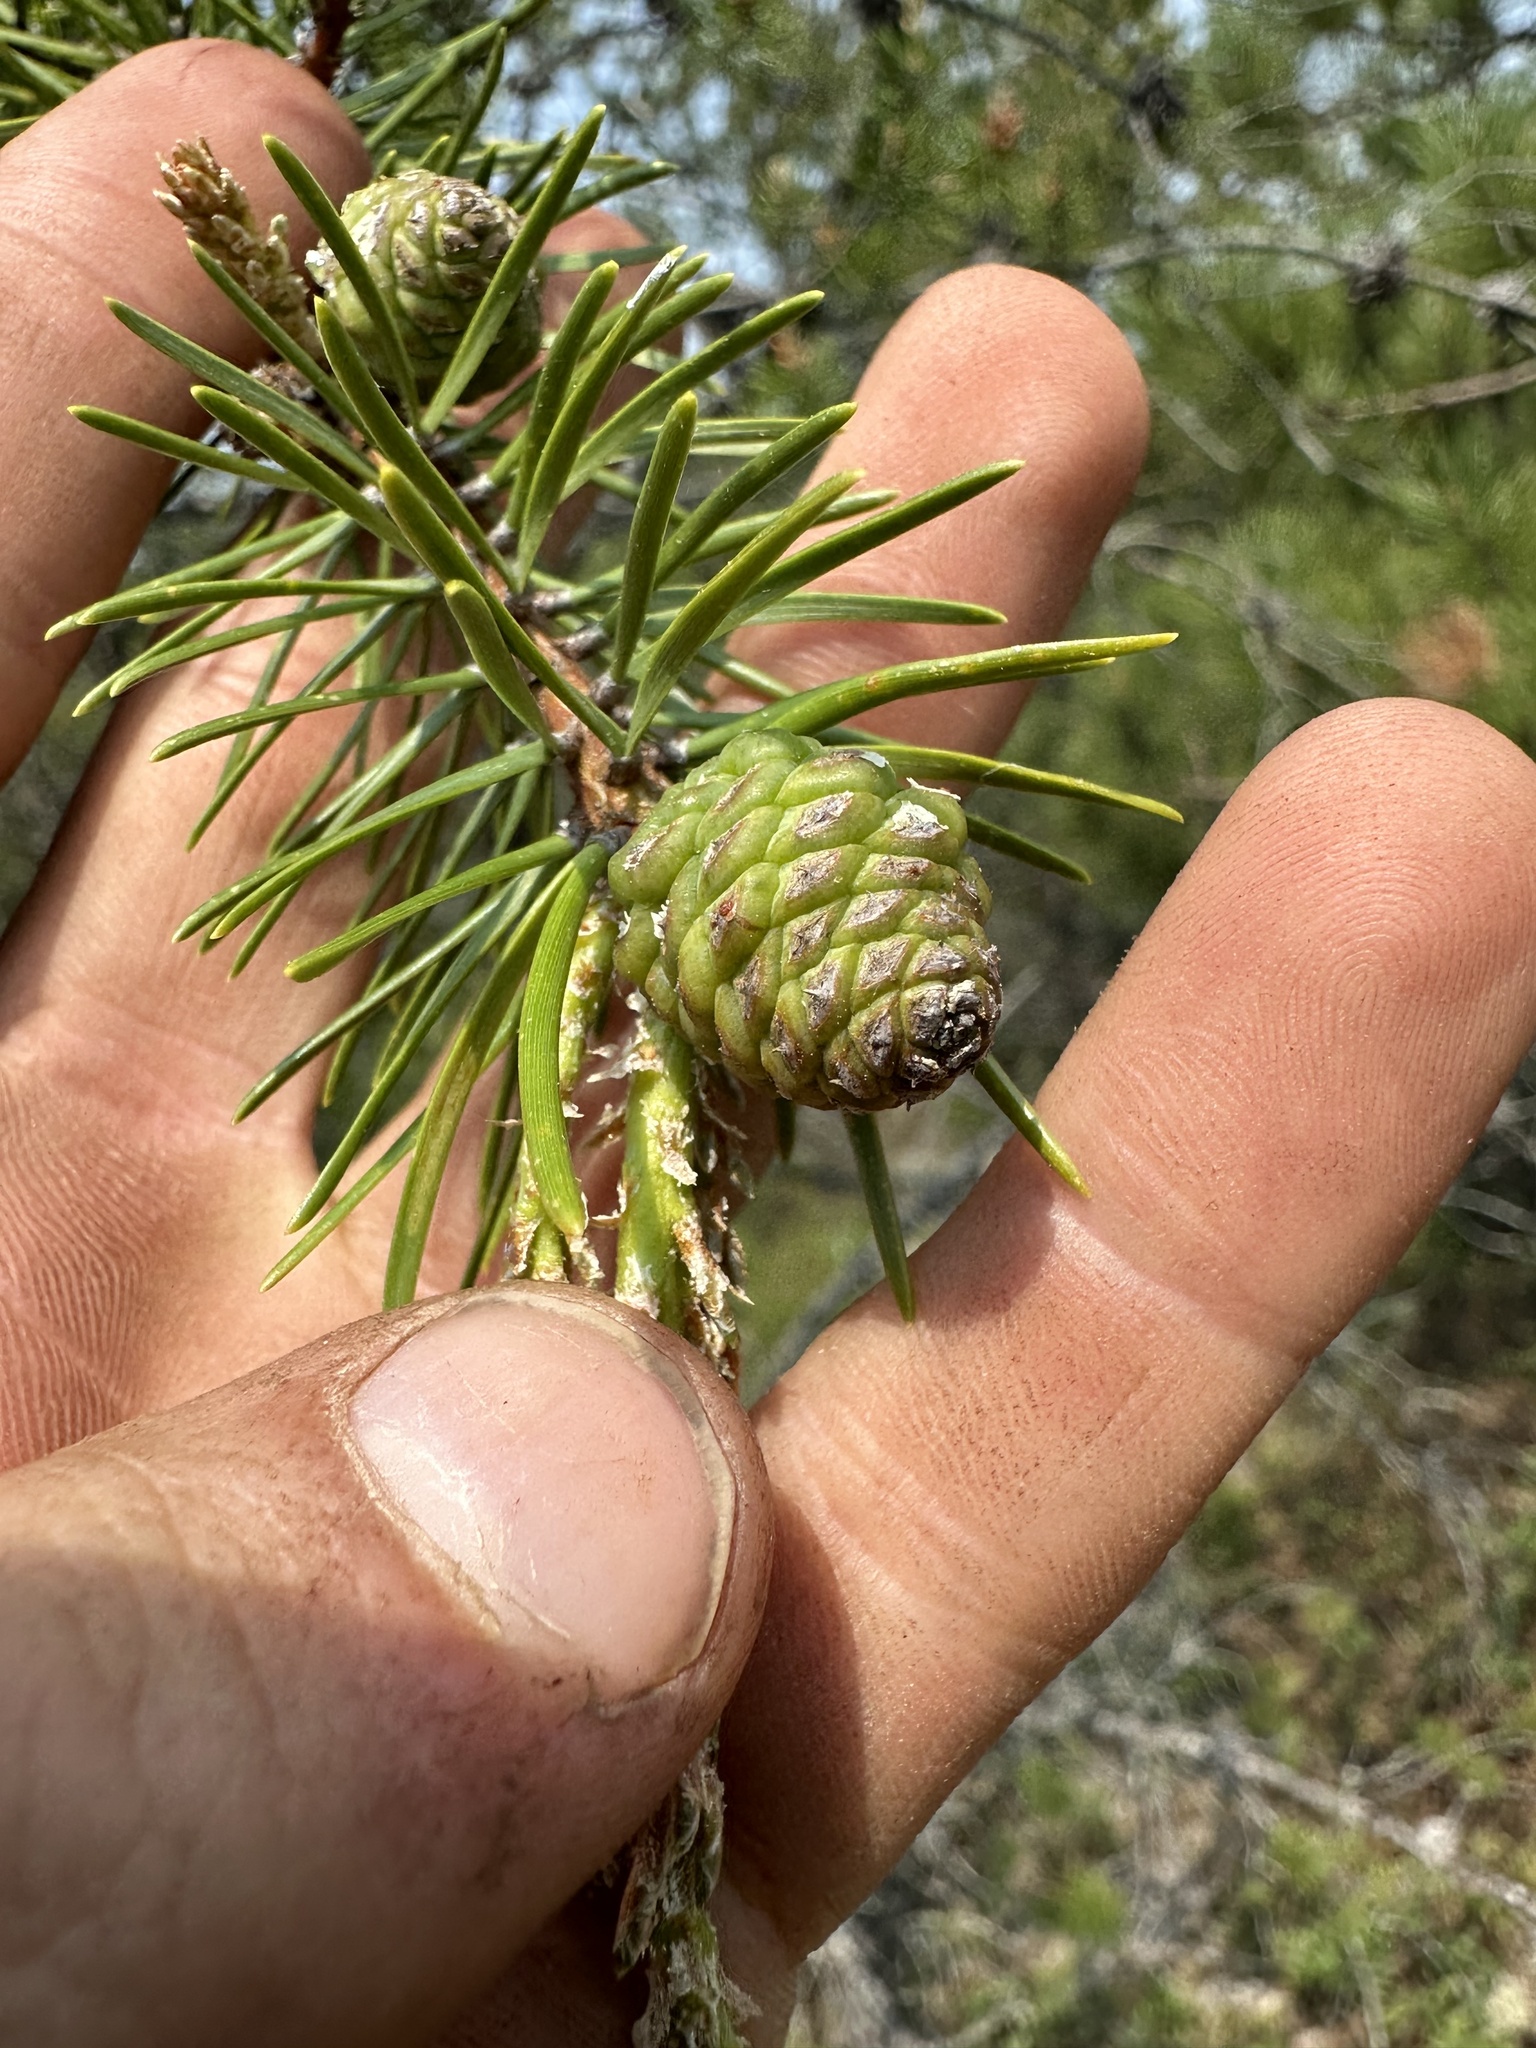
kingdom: Plantae
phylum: Tracheophyta
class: Pinopsida
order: Pinales
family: Pinaceae
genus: Pinus
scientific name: Pinus banksiana
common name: Jack pine
